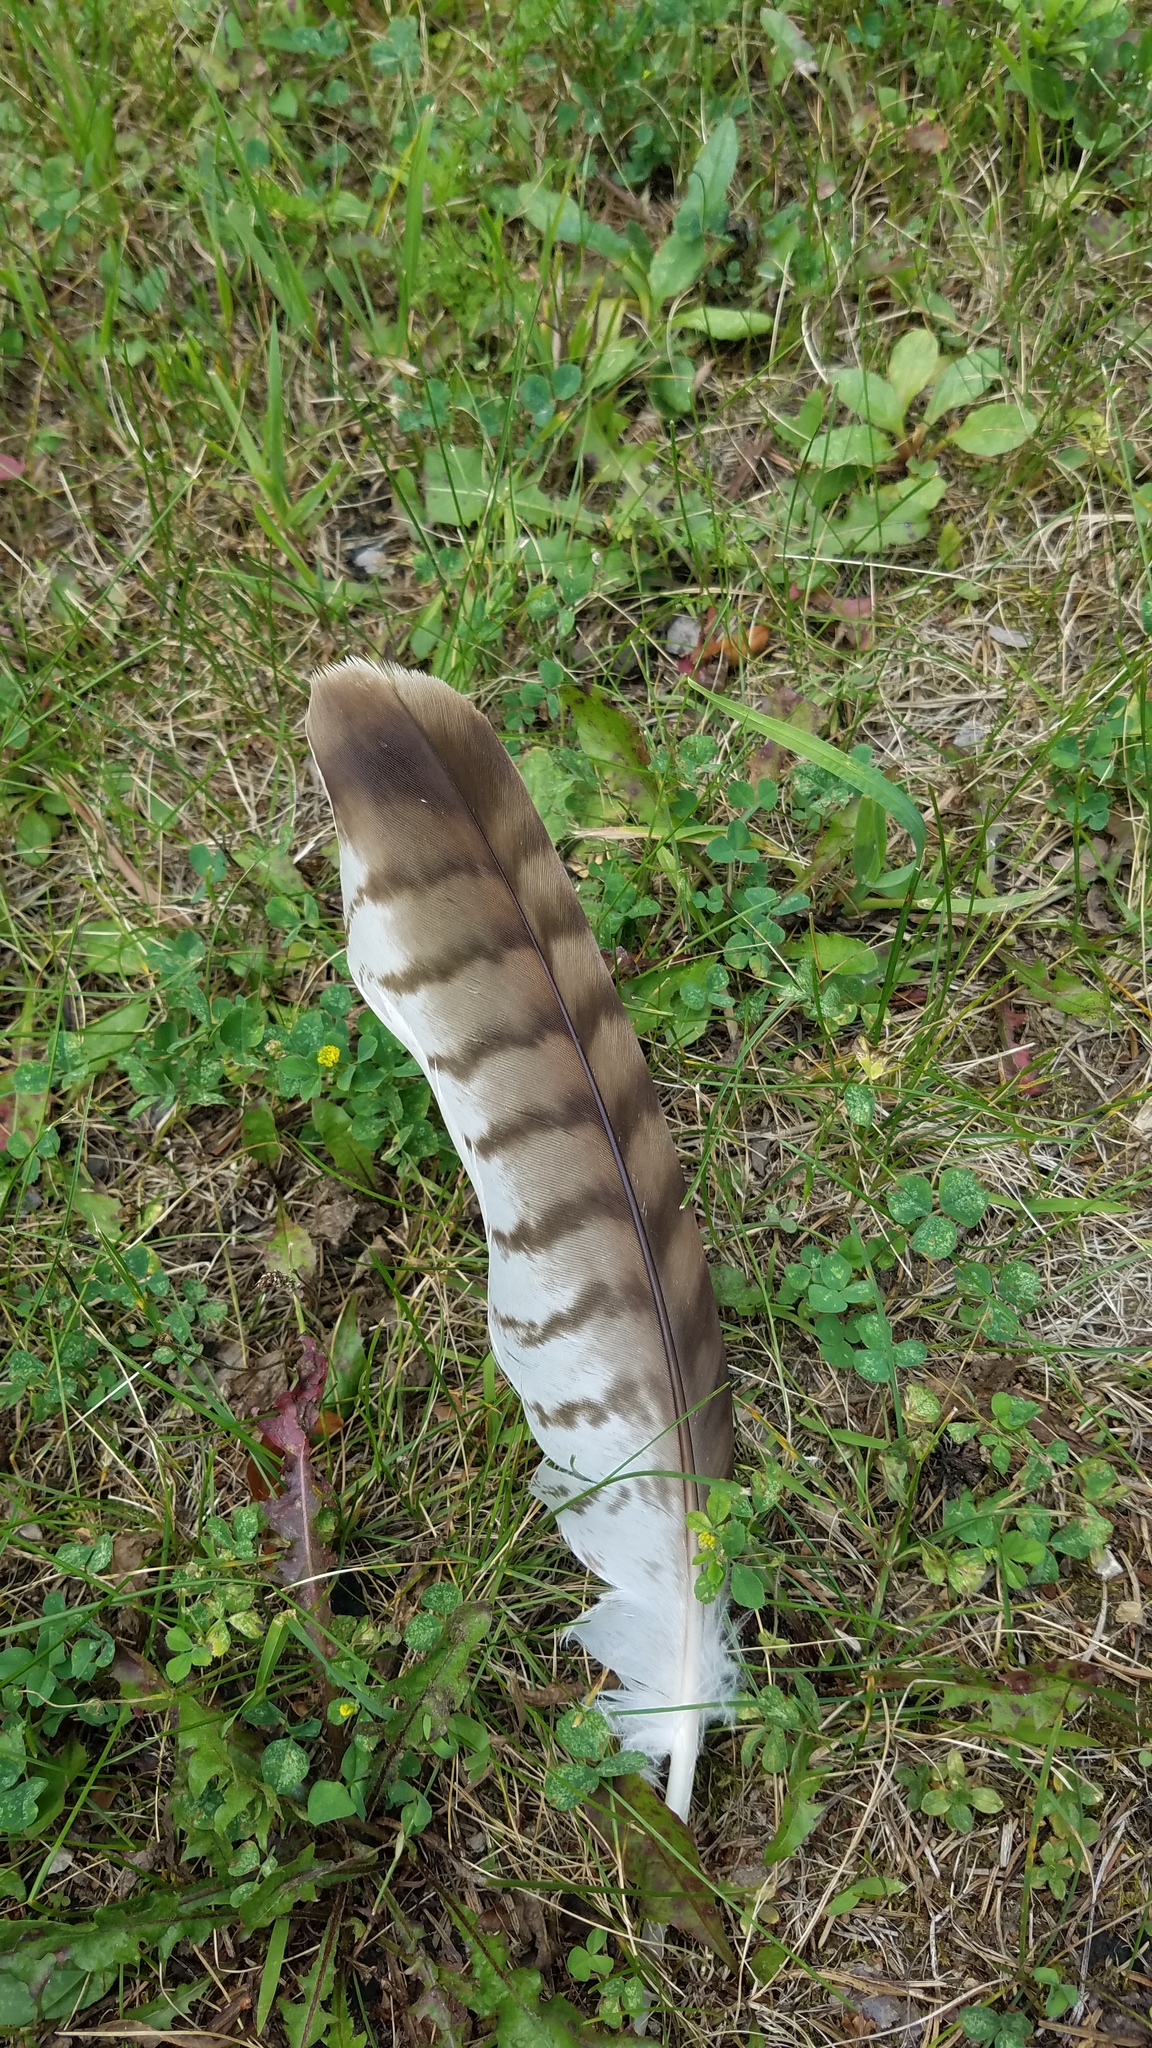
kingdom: Animalia
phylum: Chordata
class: Aves
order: Accipitriformes
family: Accipitridae
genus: Buteo
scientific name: Buteo jamaicensis
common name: Red-tailed hawk
